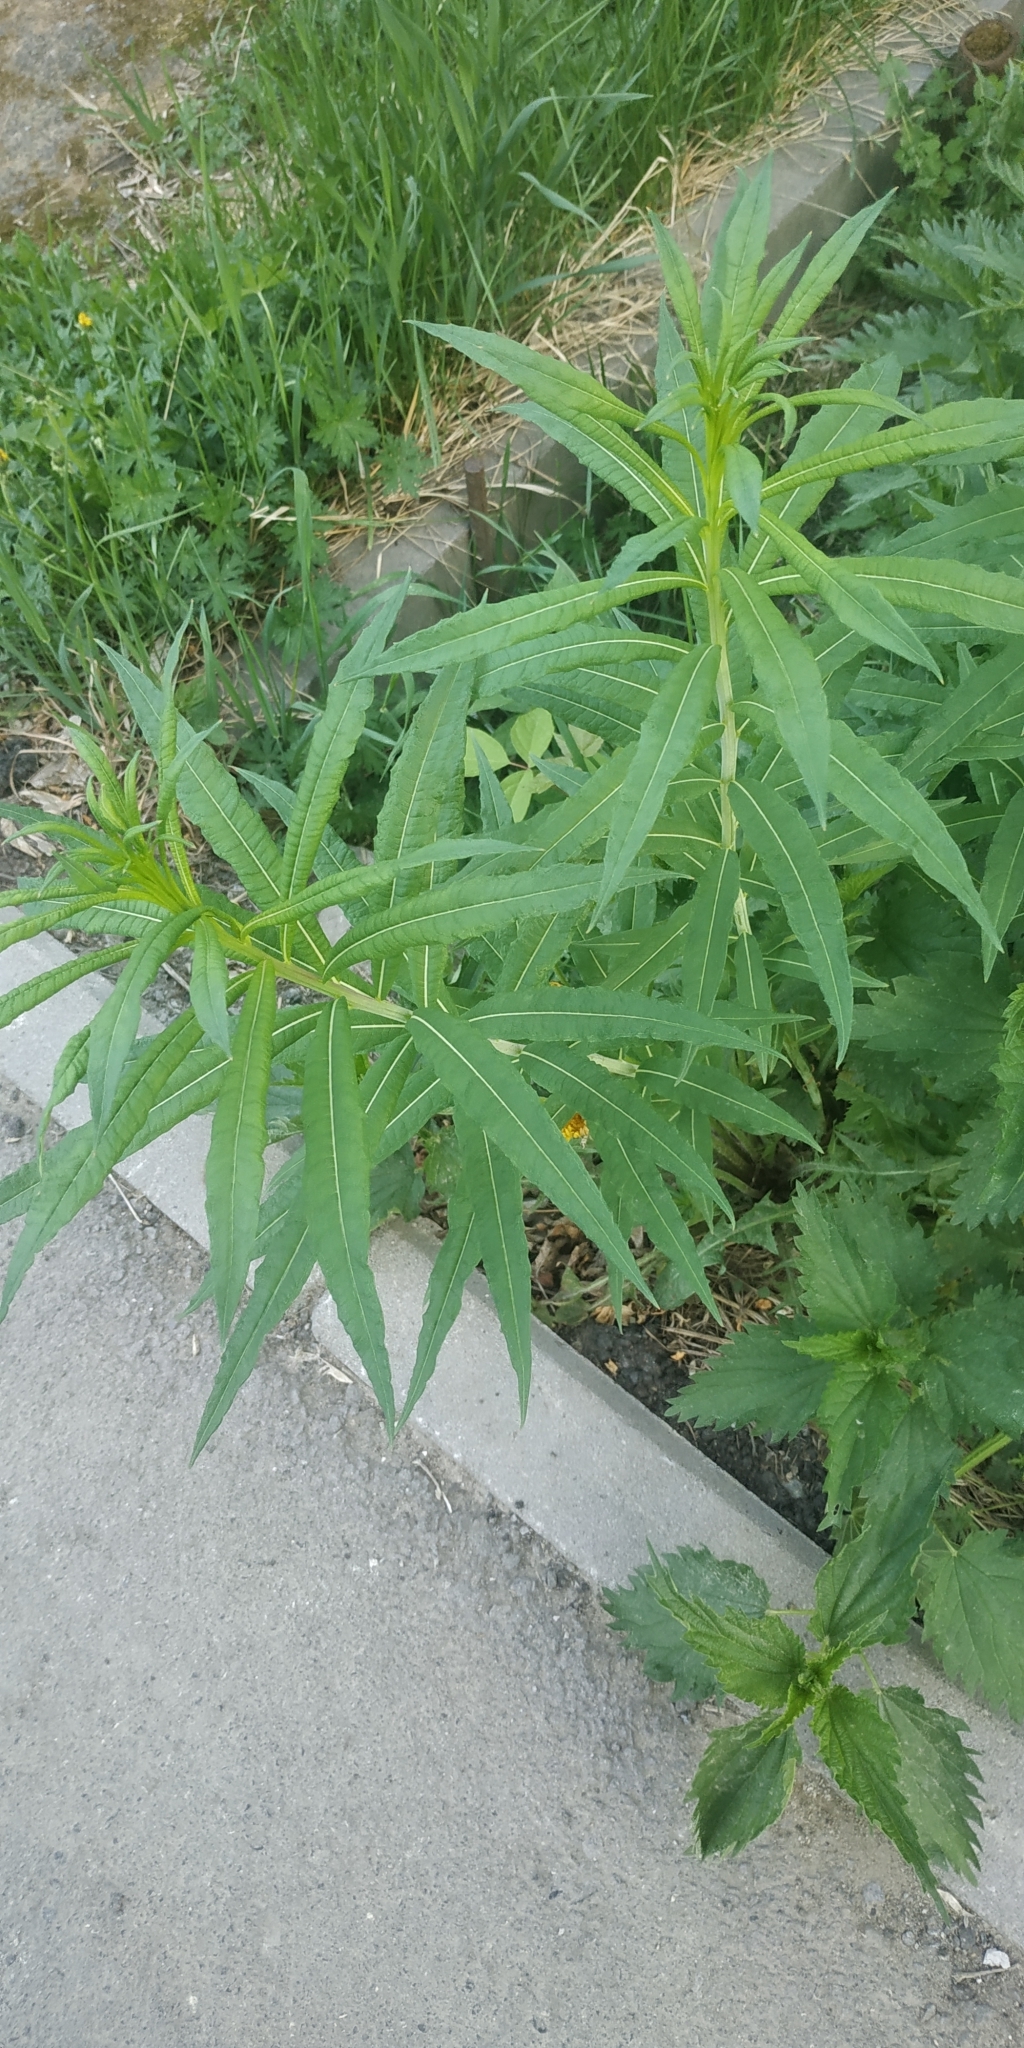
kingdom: Plantae
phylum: Tracheophyta
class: Magnoliopsida
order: Myrtales
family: Onagraceae
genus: Chamaenerion
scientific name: Chamaenerion angustifolium
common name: Fireweed
